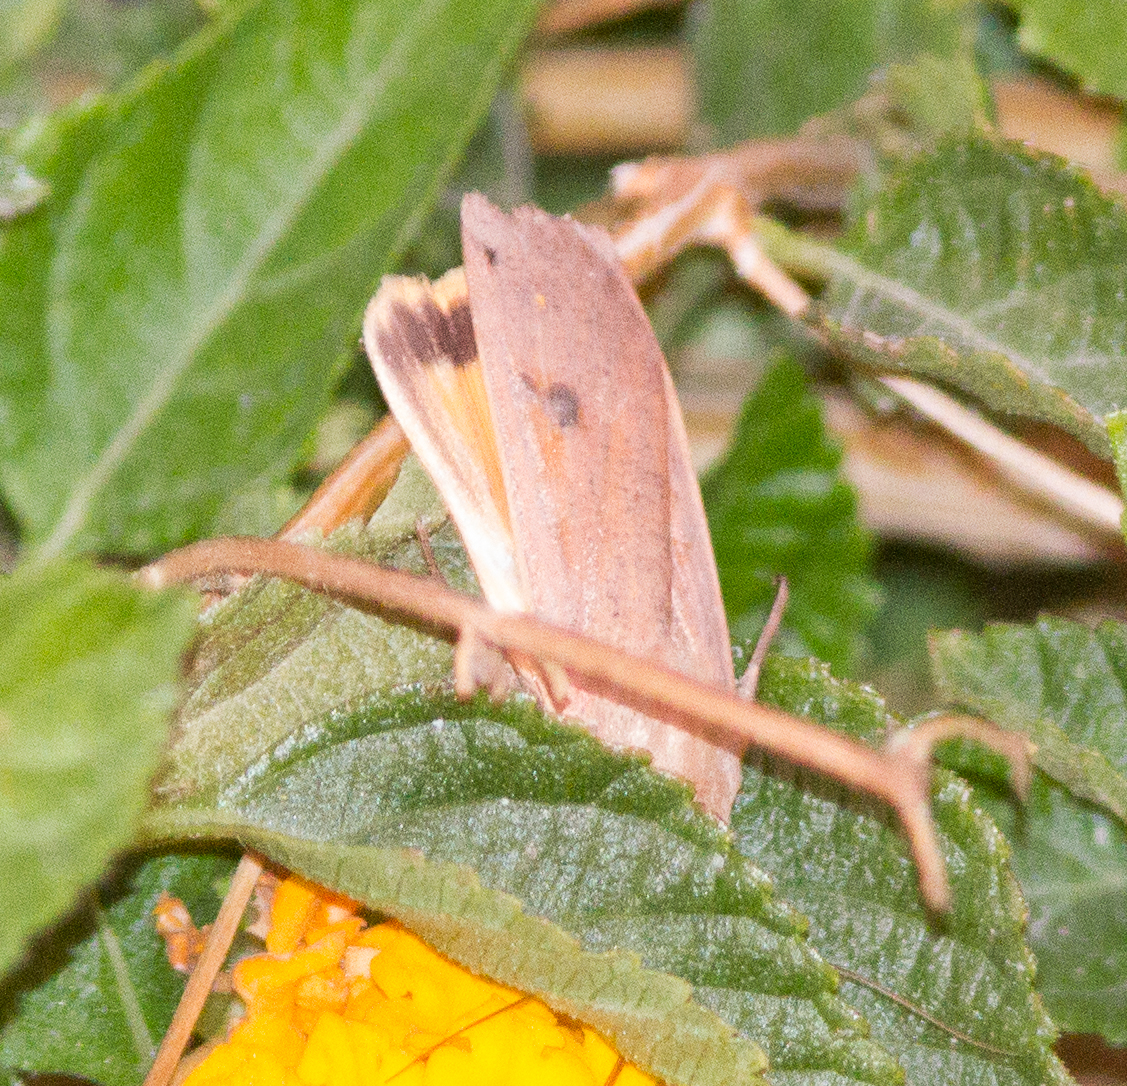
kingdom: Animalia
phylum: Arthropoda
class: Insecta
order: Lepidoptera
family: Noctuidae
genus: Noctua
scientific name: Noctua pronuba
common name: Large yellow underwing
